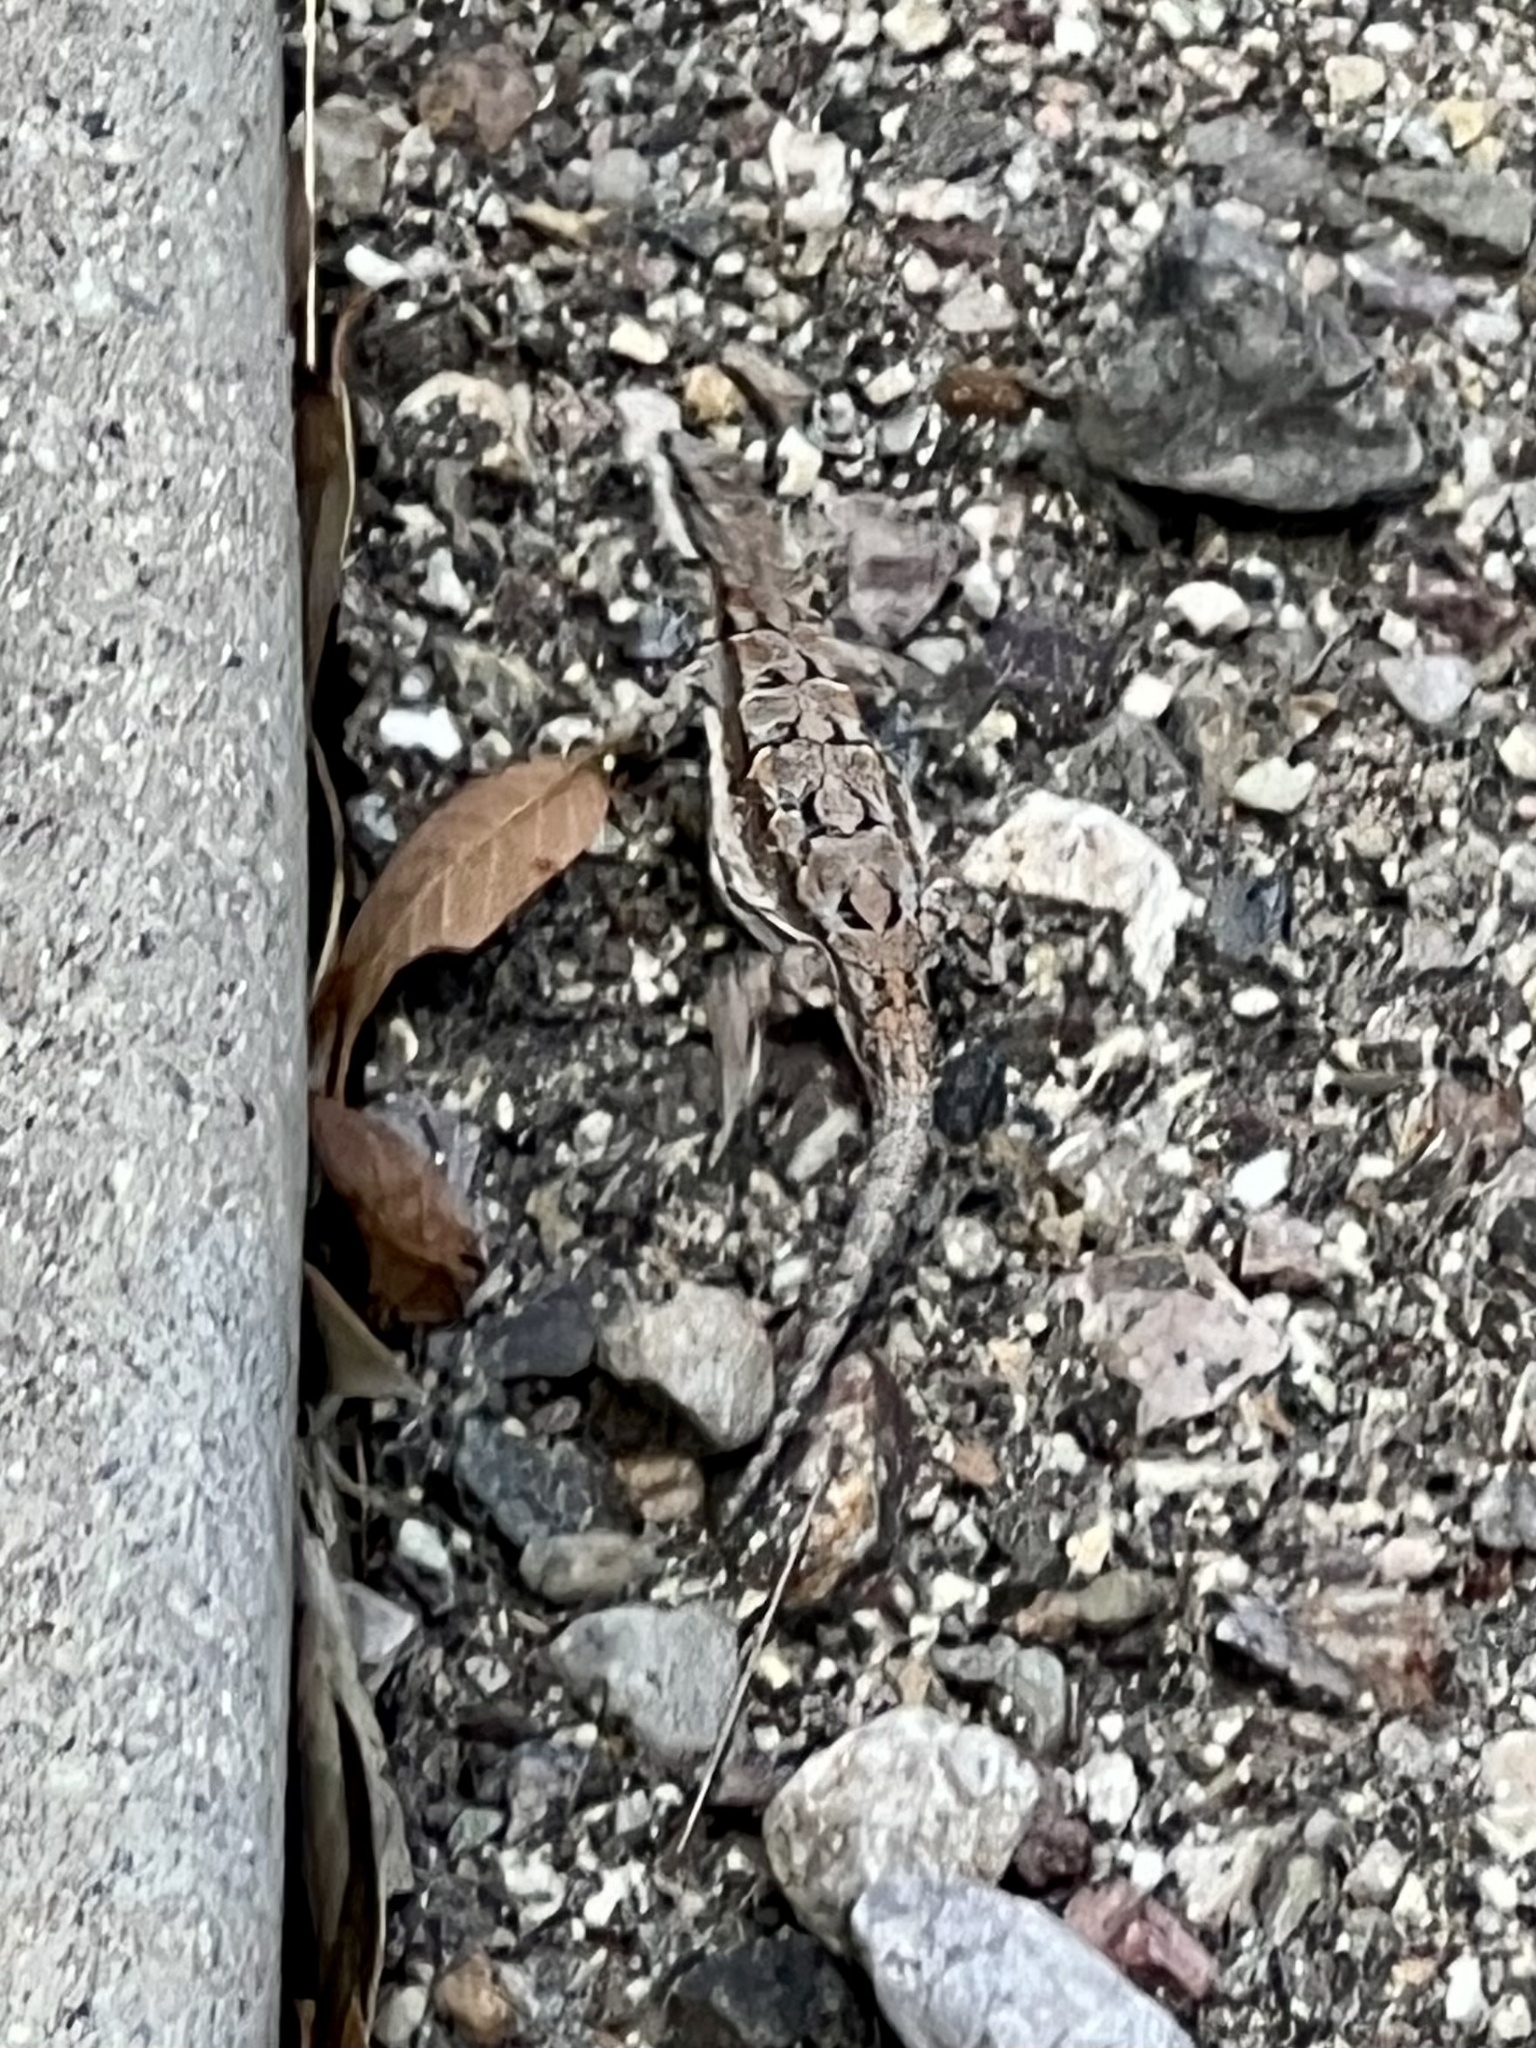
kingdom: Animalia
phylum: Chordata
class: Squamata
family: Phrynosomatidae
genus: Urosaurus
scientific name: Urosaurus ornatus
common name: Ornate tree lizard
